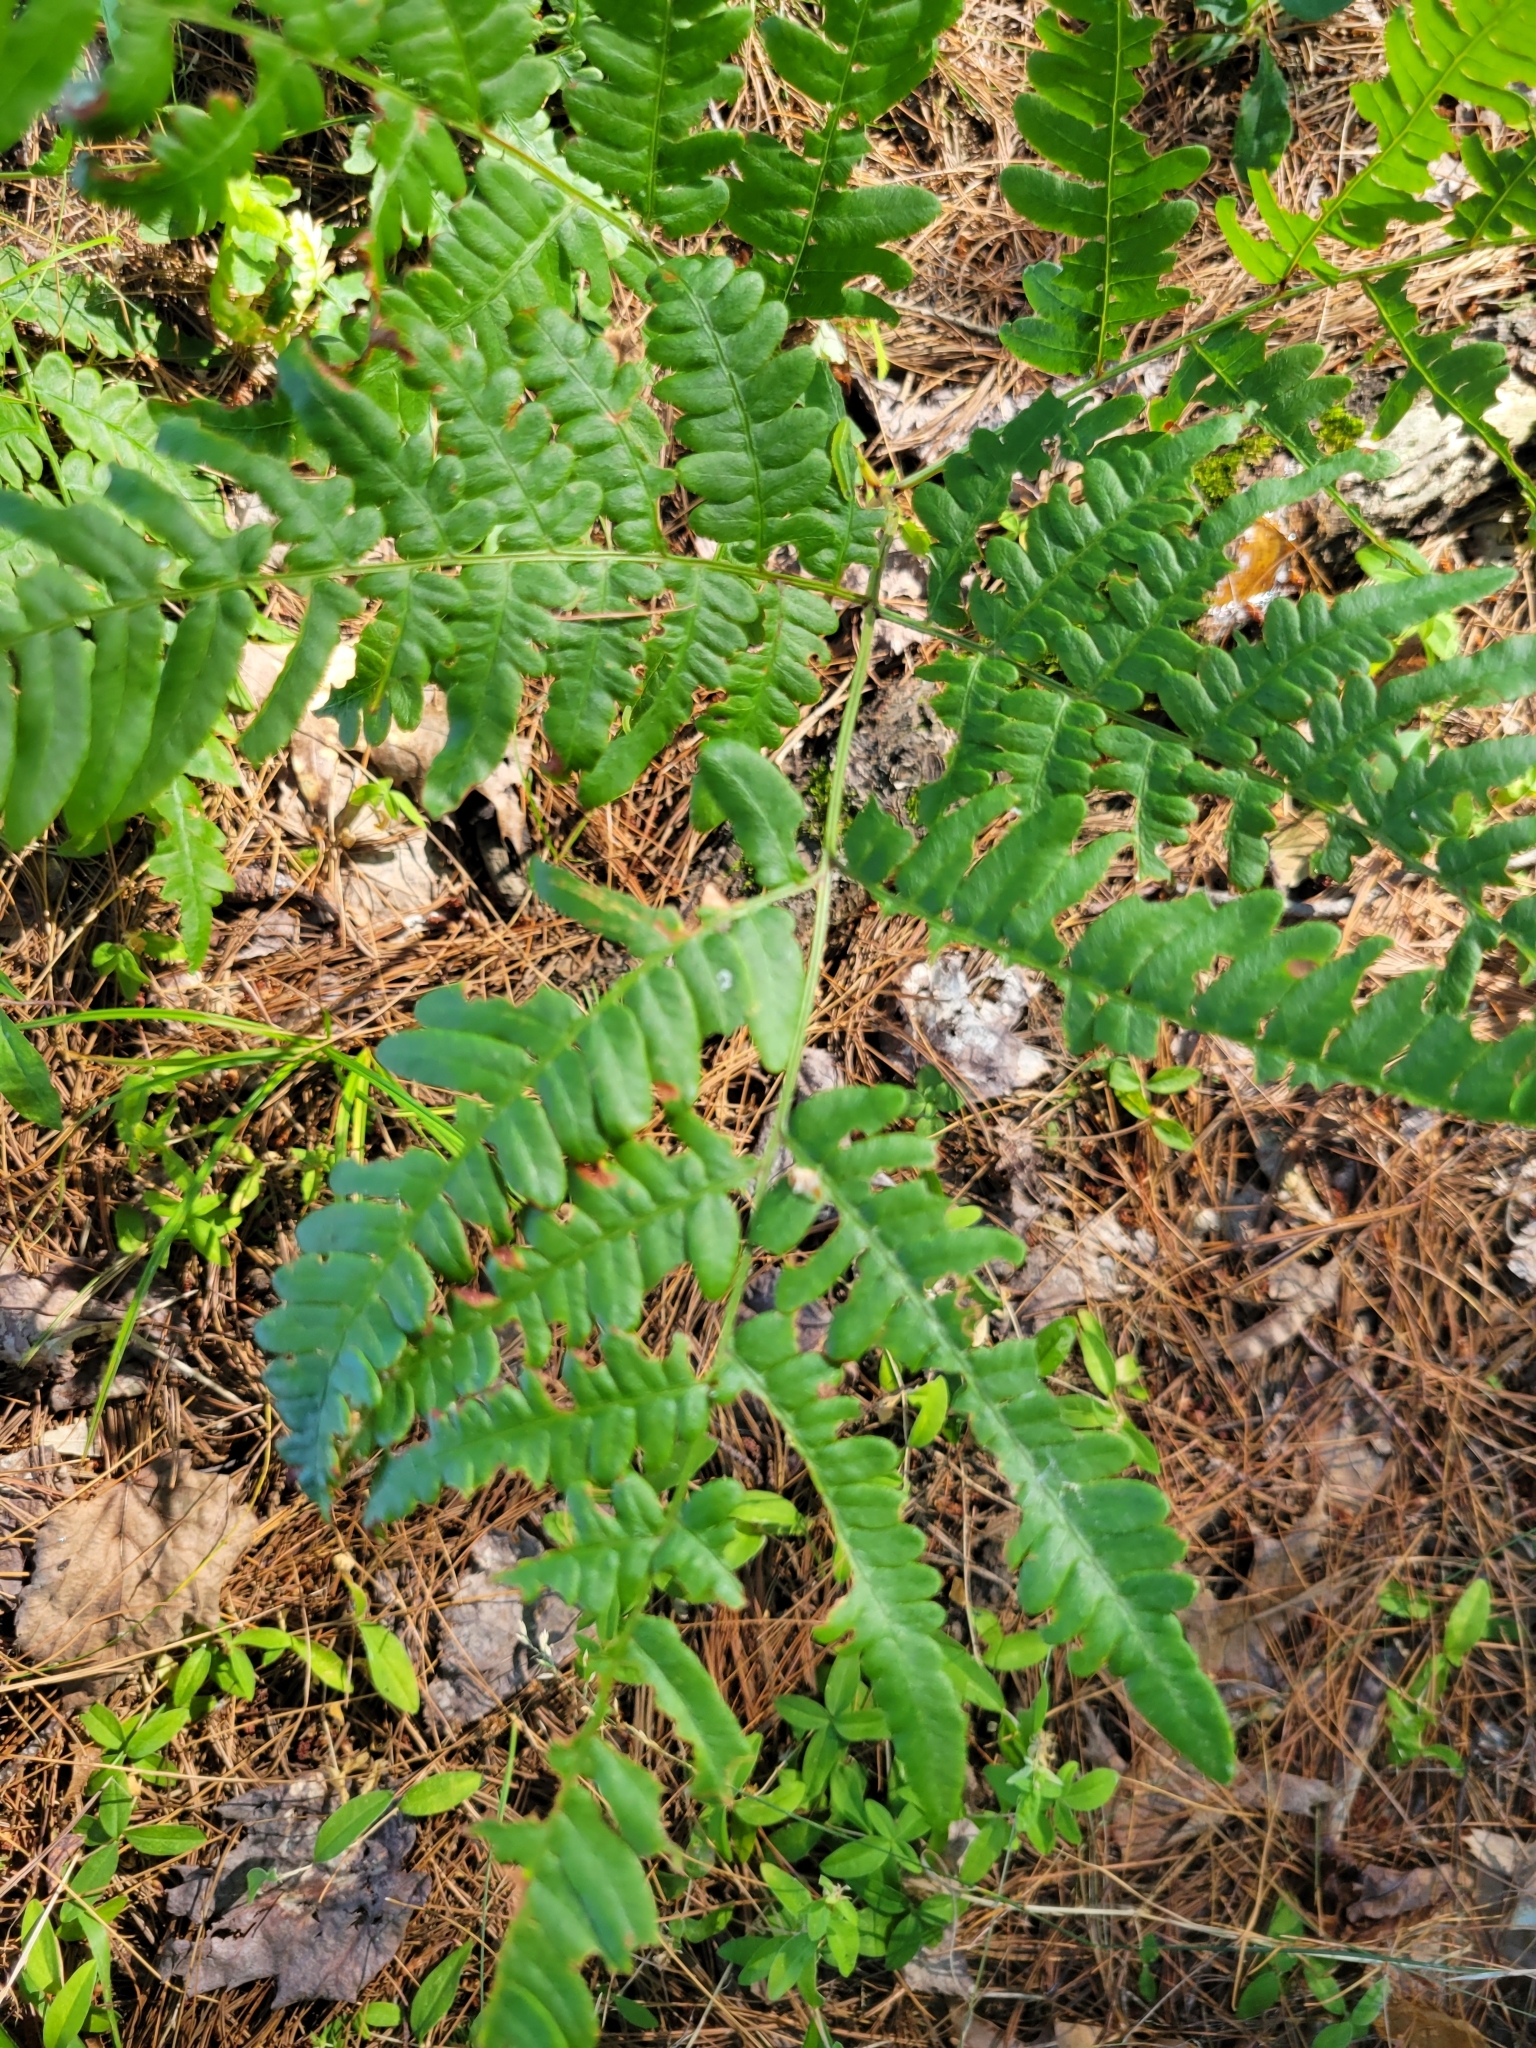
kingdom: Plantae
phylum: Tracheophyta
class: Polypodiopsida
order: Polypodiales
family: Dennstaedtiaceae
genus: Pteridium
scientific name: Pteridium aquilinum
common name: Bracken
